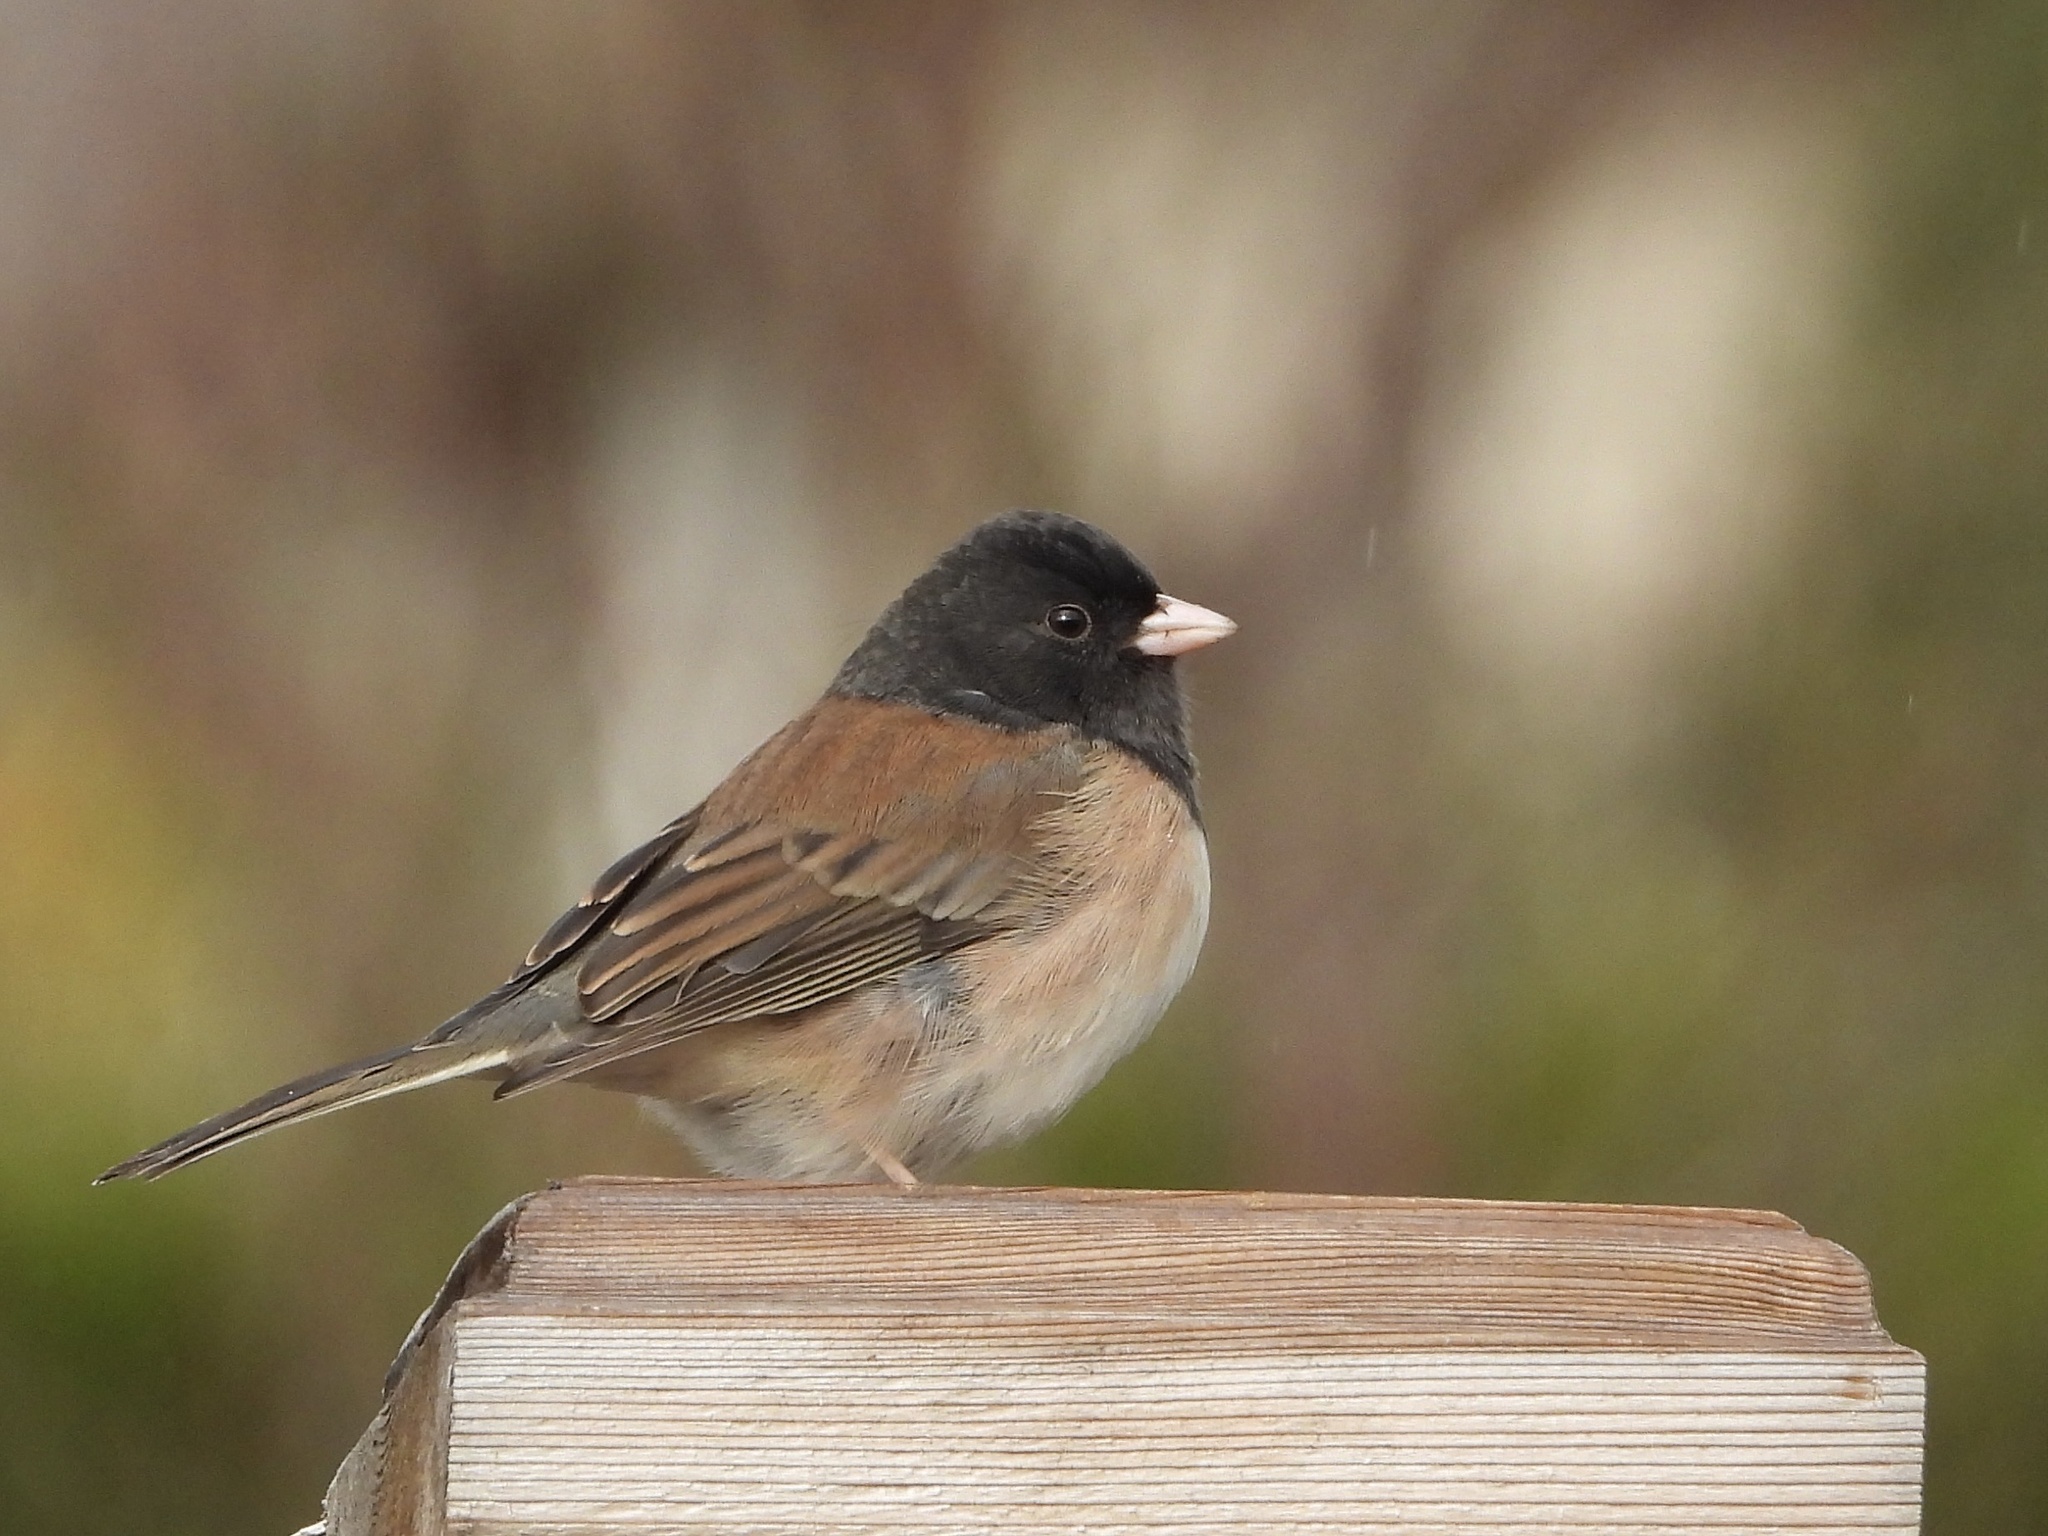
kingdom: Animalia
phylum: Chordata
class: Aves
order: Passeriformes
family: Passerellidae
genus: Junco
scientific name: Junco hyemalis
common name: Dark-eyed junco
